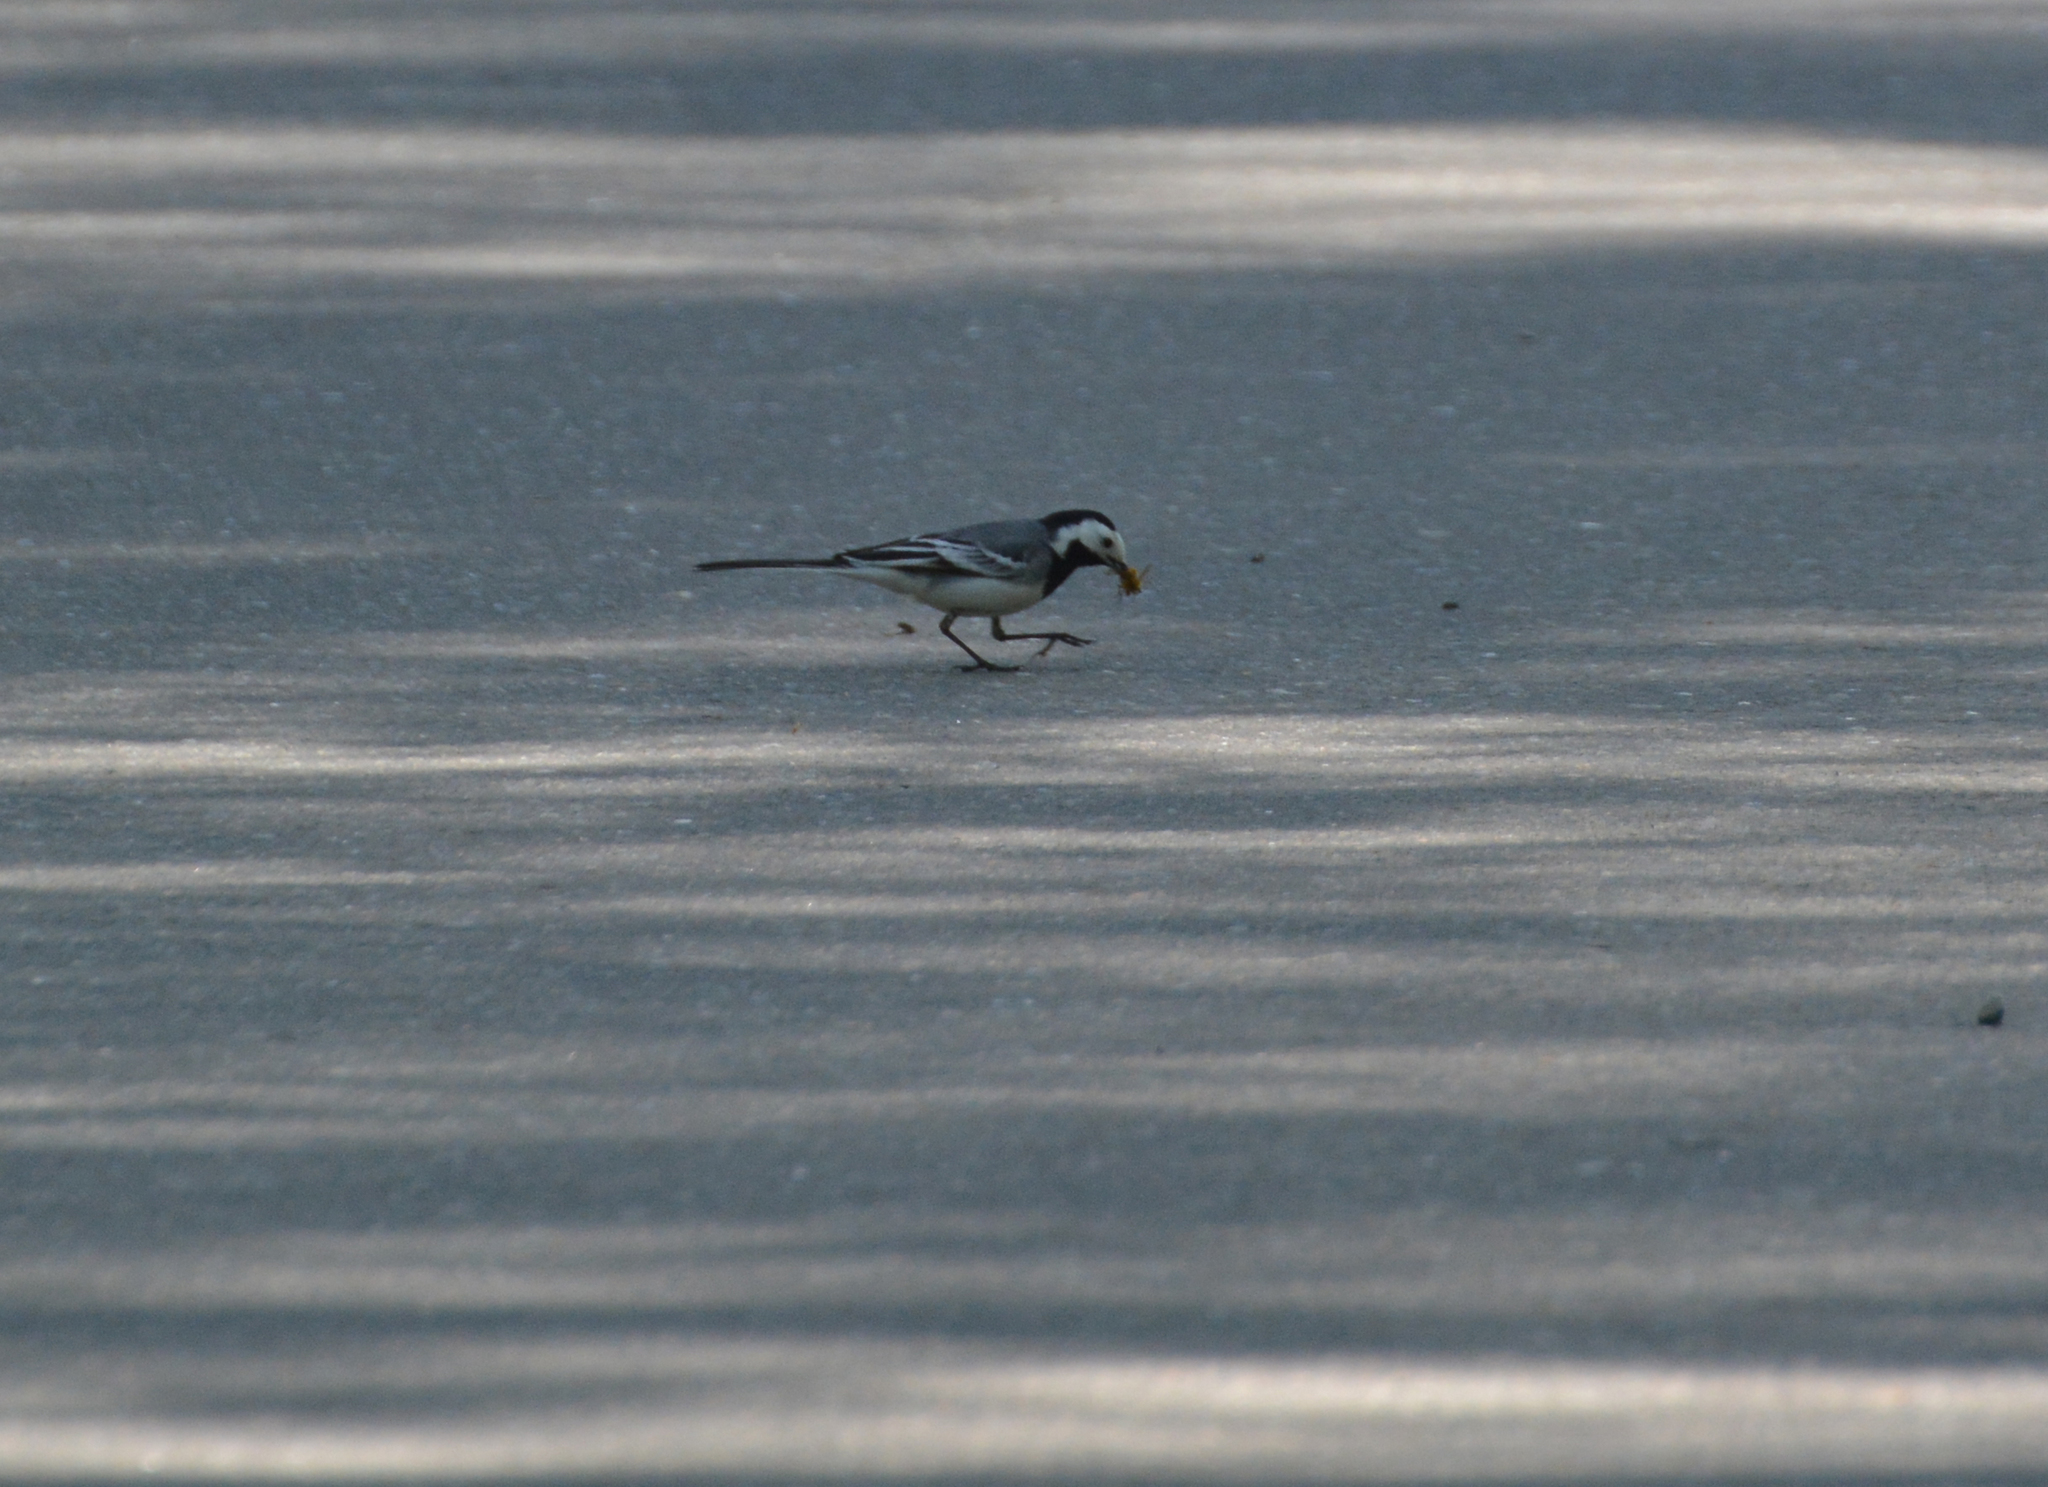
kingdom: Animalia
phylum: Chordata
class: Aves
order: Passeriformes
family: Motacillidae
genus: Motacilla
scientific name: Motacilla alba
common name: White wagtail
